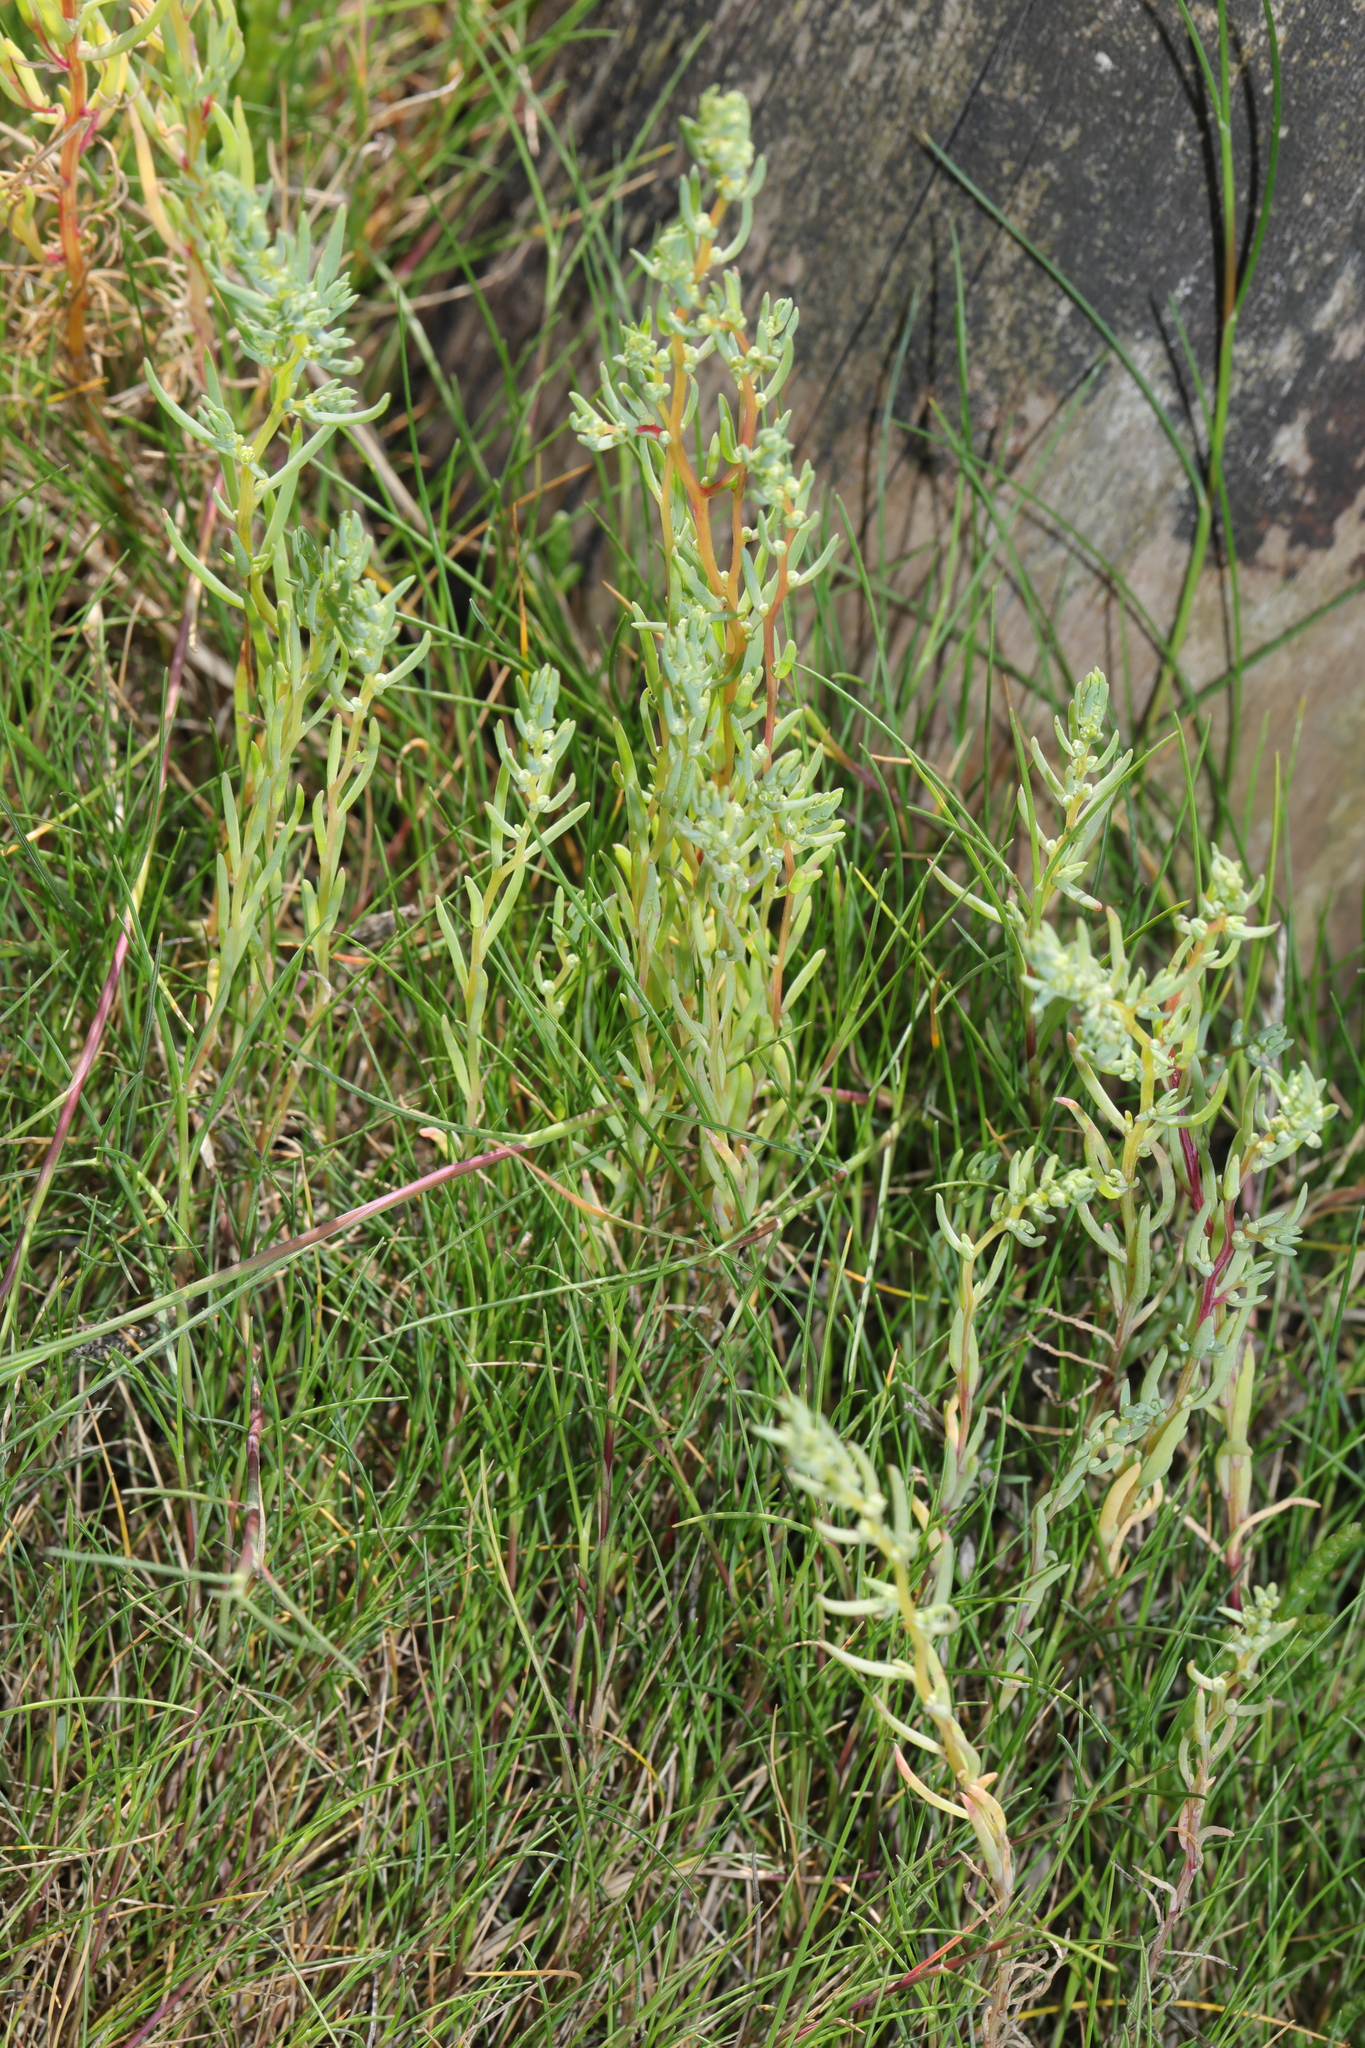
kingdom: Plantae
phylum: Tracheophyta
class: Magnoliopsida
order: Caryophyllales
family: Amaranthaceae
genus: Suaeda
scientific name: Suaeda maritima
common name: Annual sea-blite
